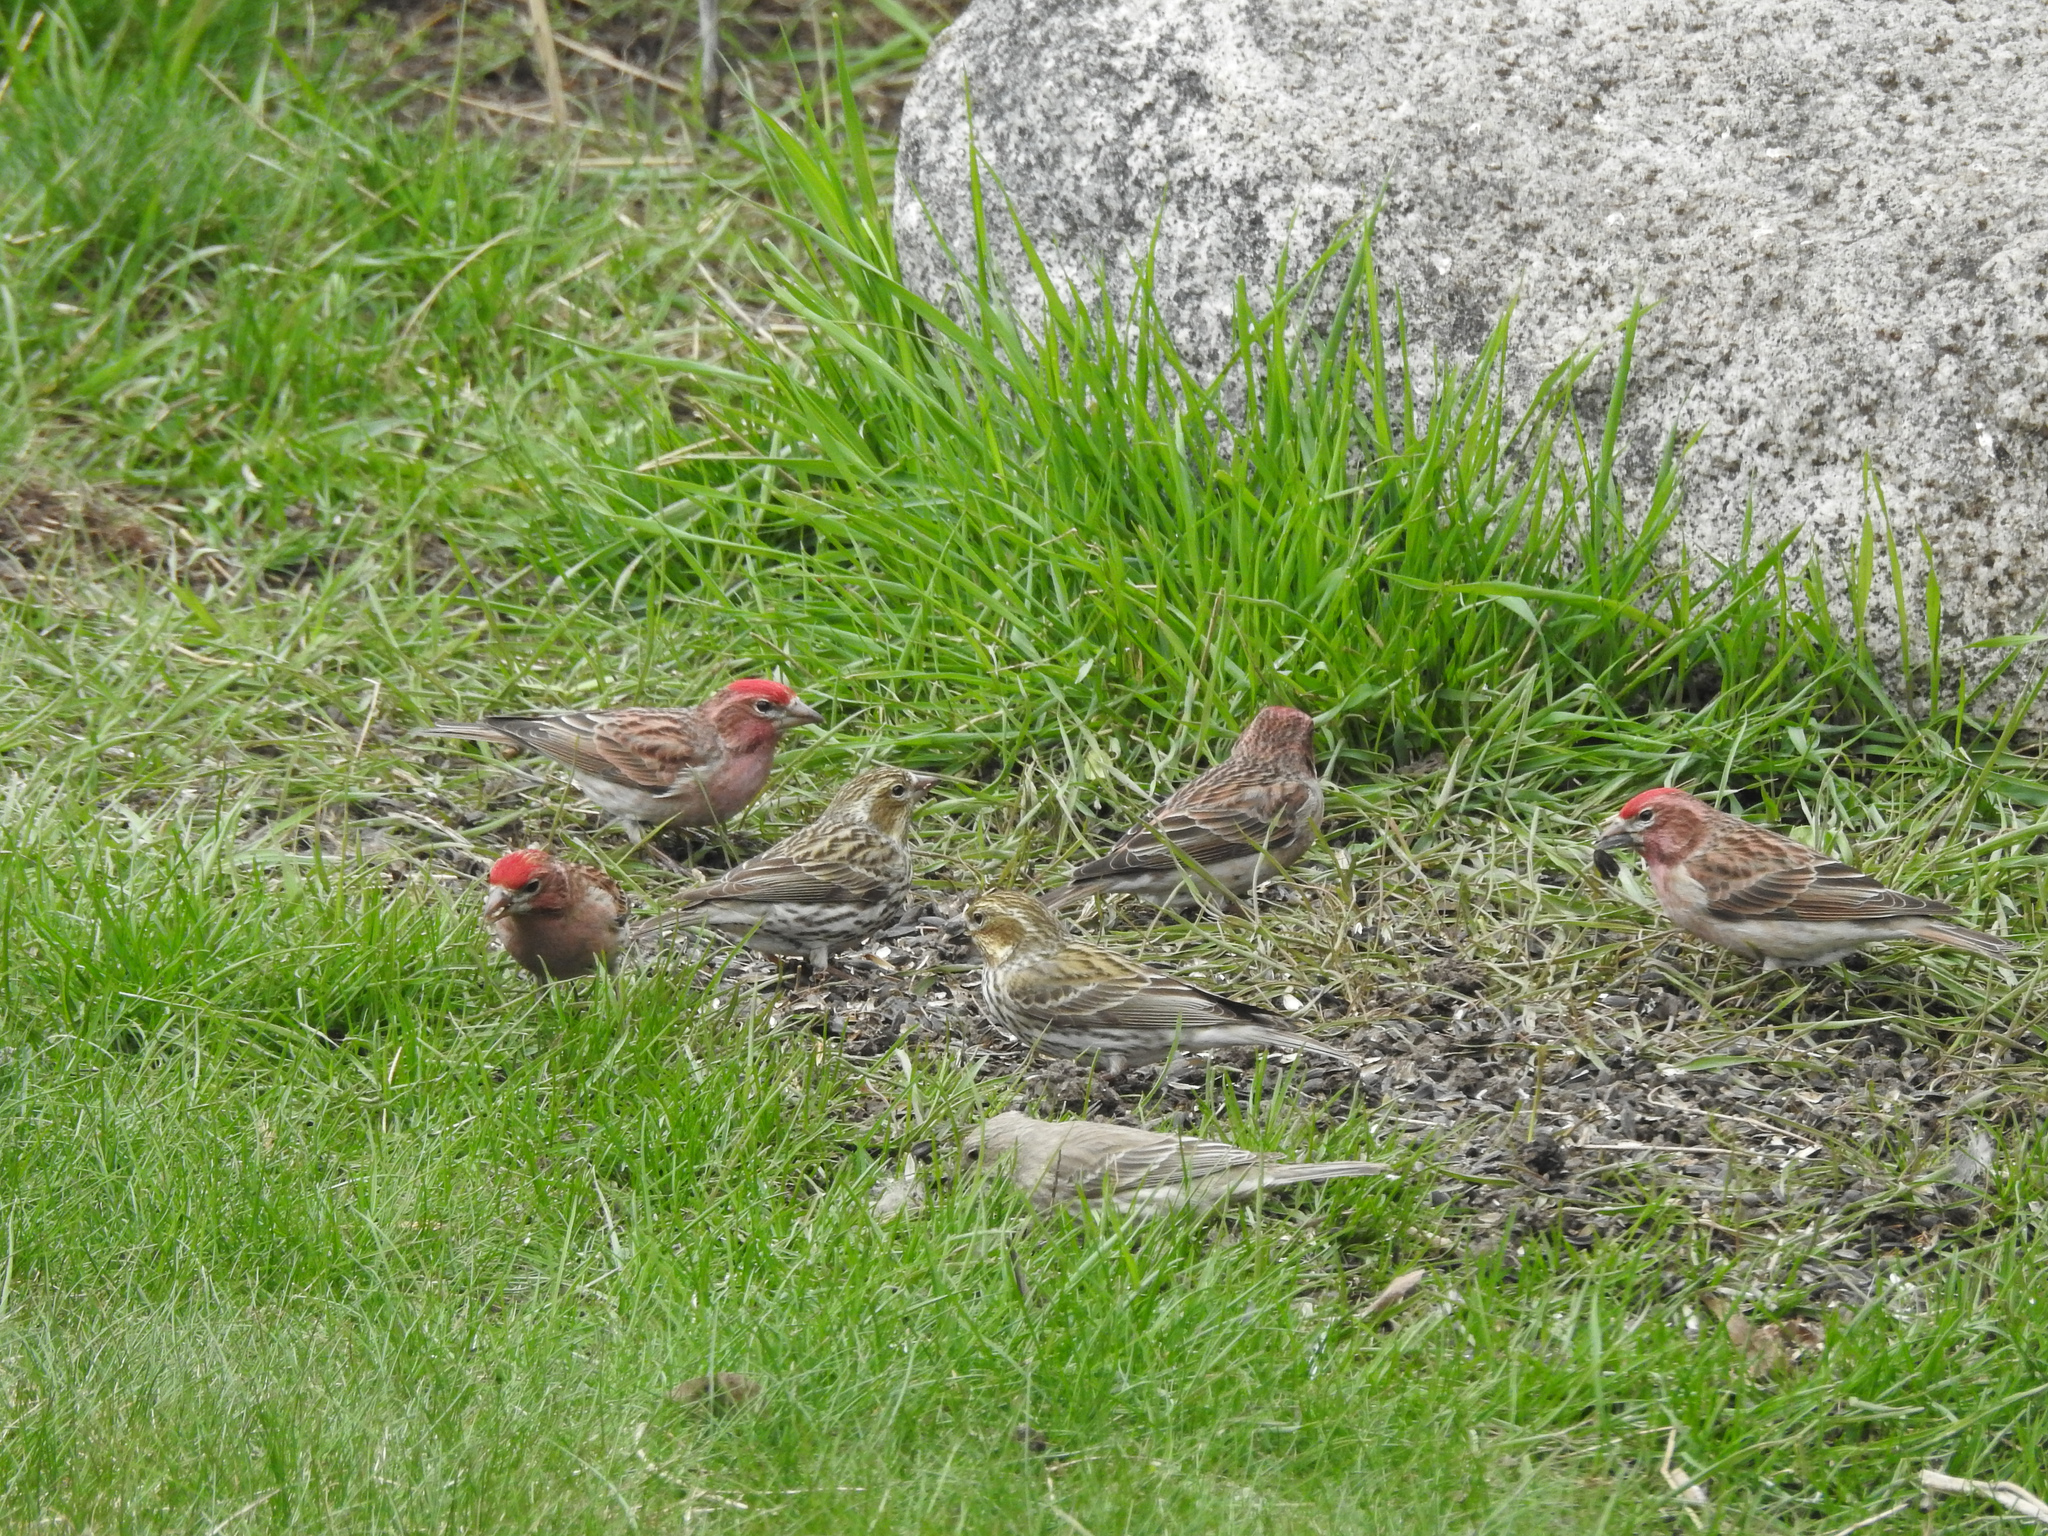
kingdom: Animalia
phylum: Chordata
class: Aves
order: Passeriformes
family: Fringillidae
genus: Haemorhous
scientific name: Haemorhous cassinii
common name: Cassin's finch
